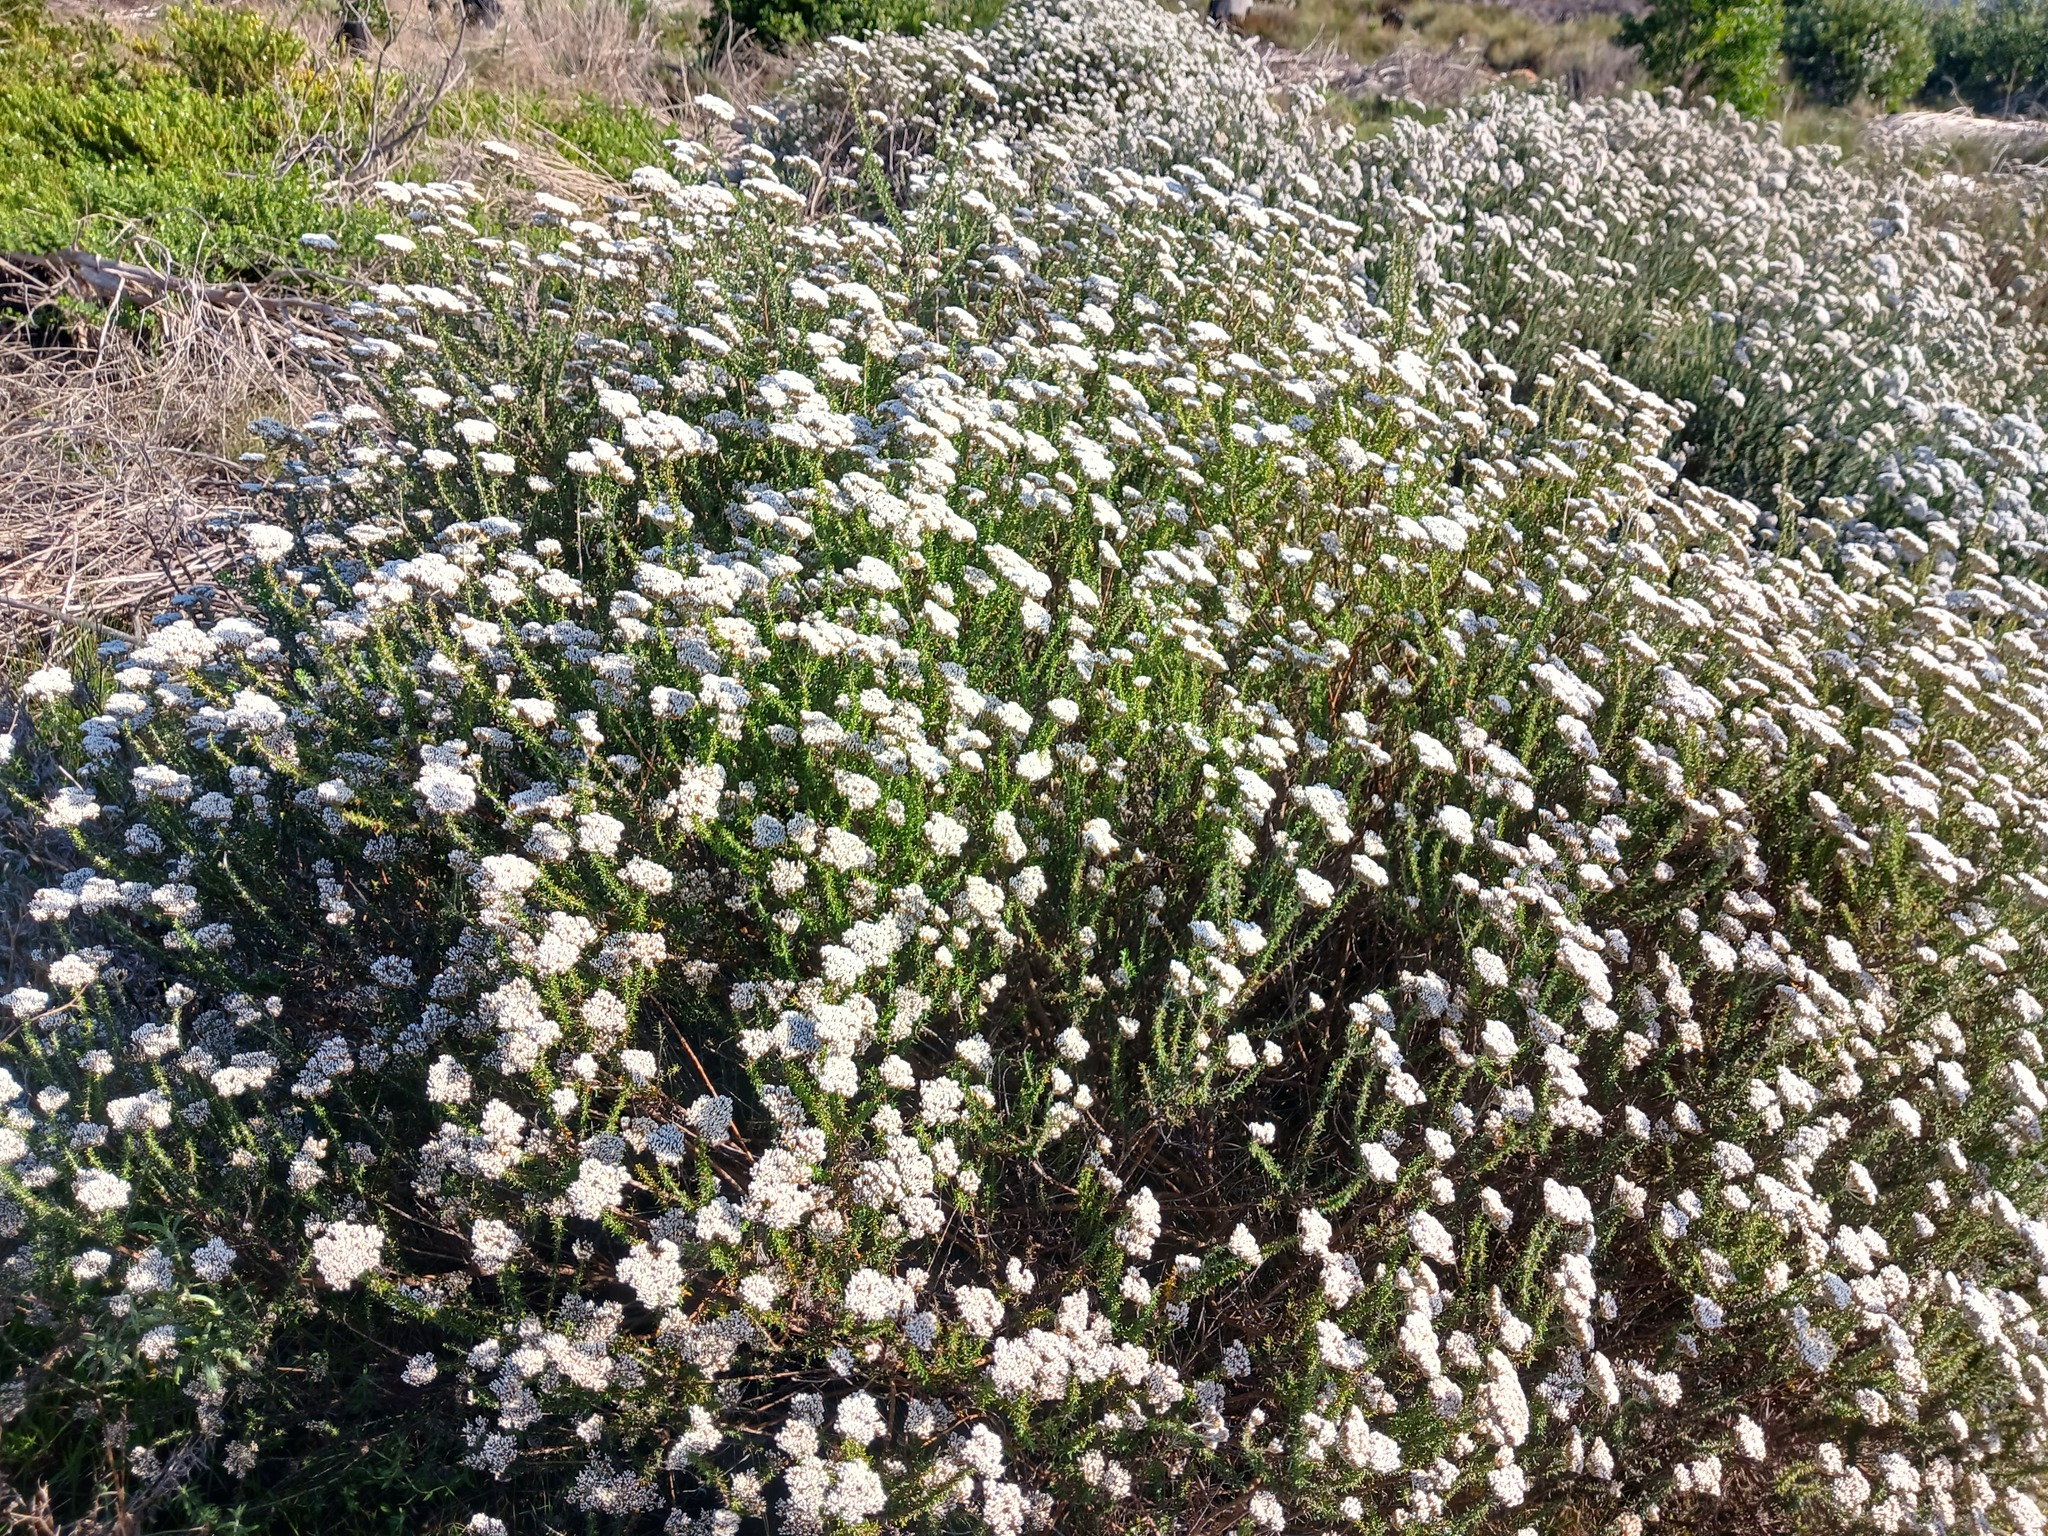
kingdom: Plantae
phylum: Tracheophyta
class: Magnoliopsida
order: Asterales
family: Asteraceae
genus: Metalasia
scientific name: Metalasia densa
